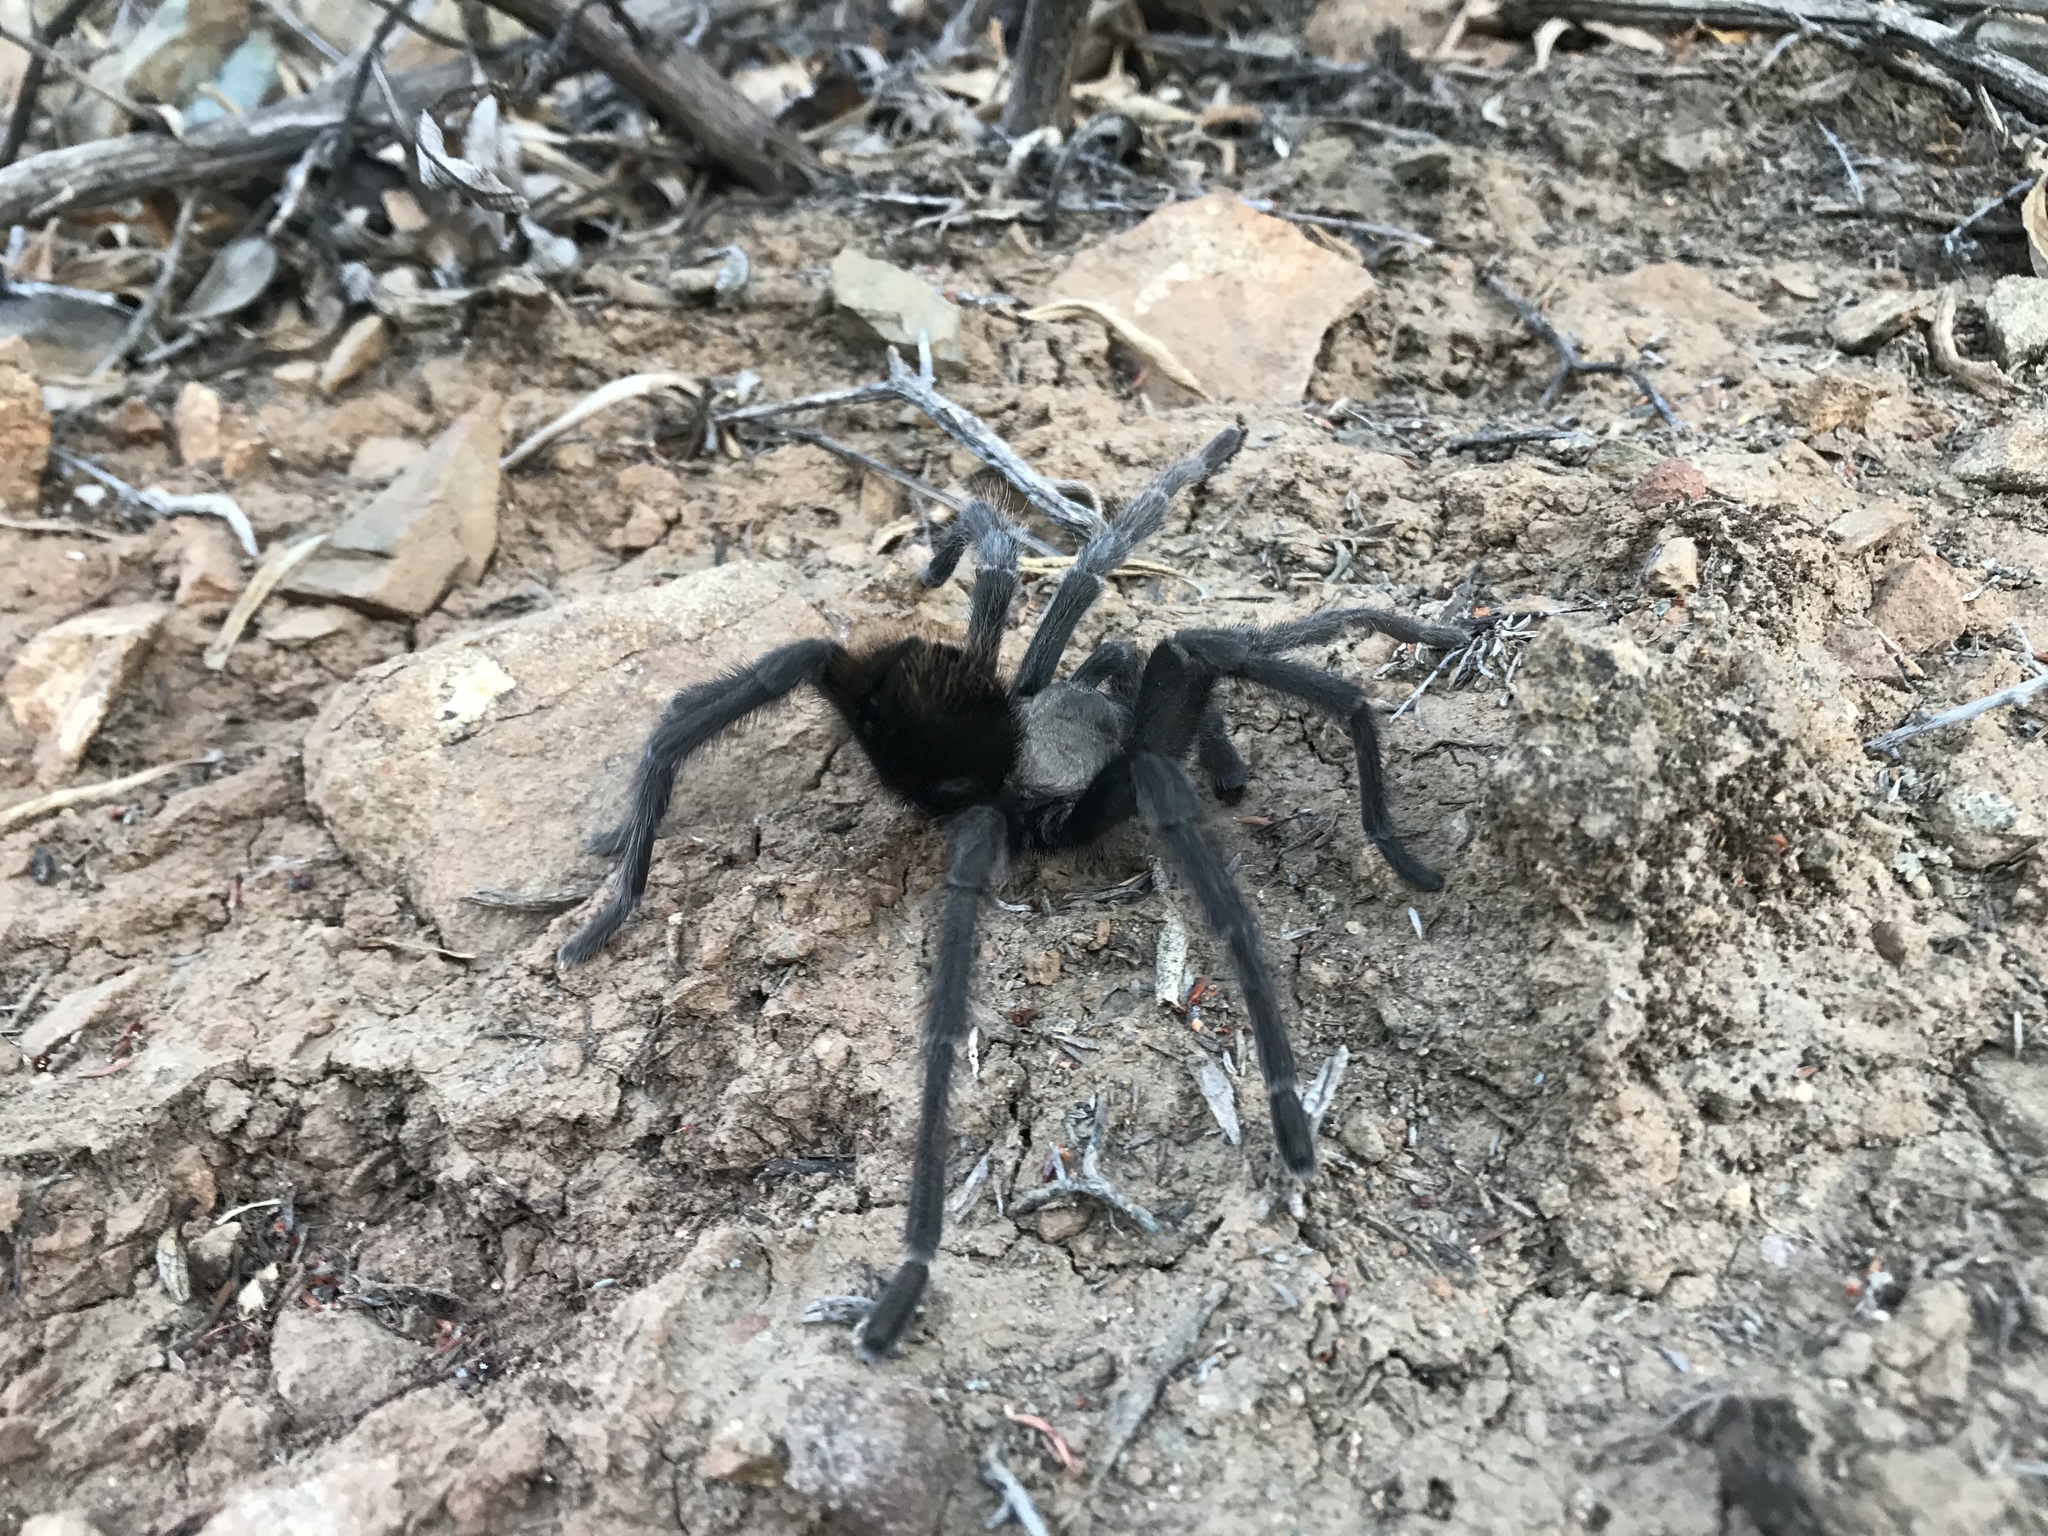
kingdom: Animalia
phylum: Arthropoda
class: Arachnida
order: Araneae
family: Theraphosidae
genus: Aphonopelma
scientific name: Aphonopelma iodius
